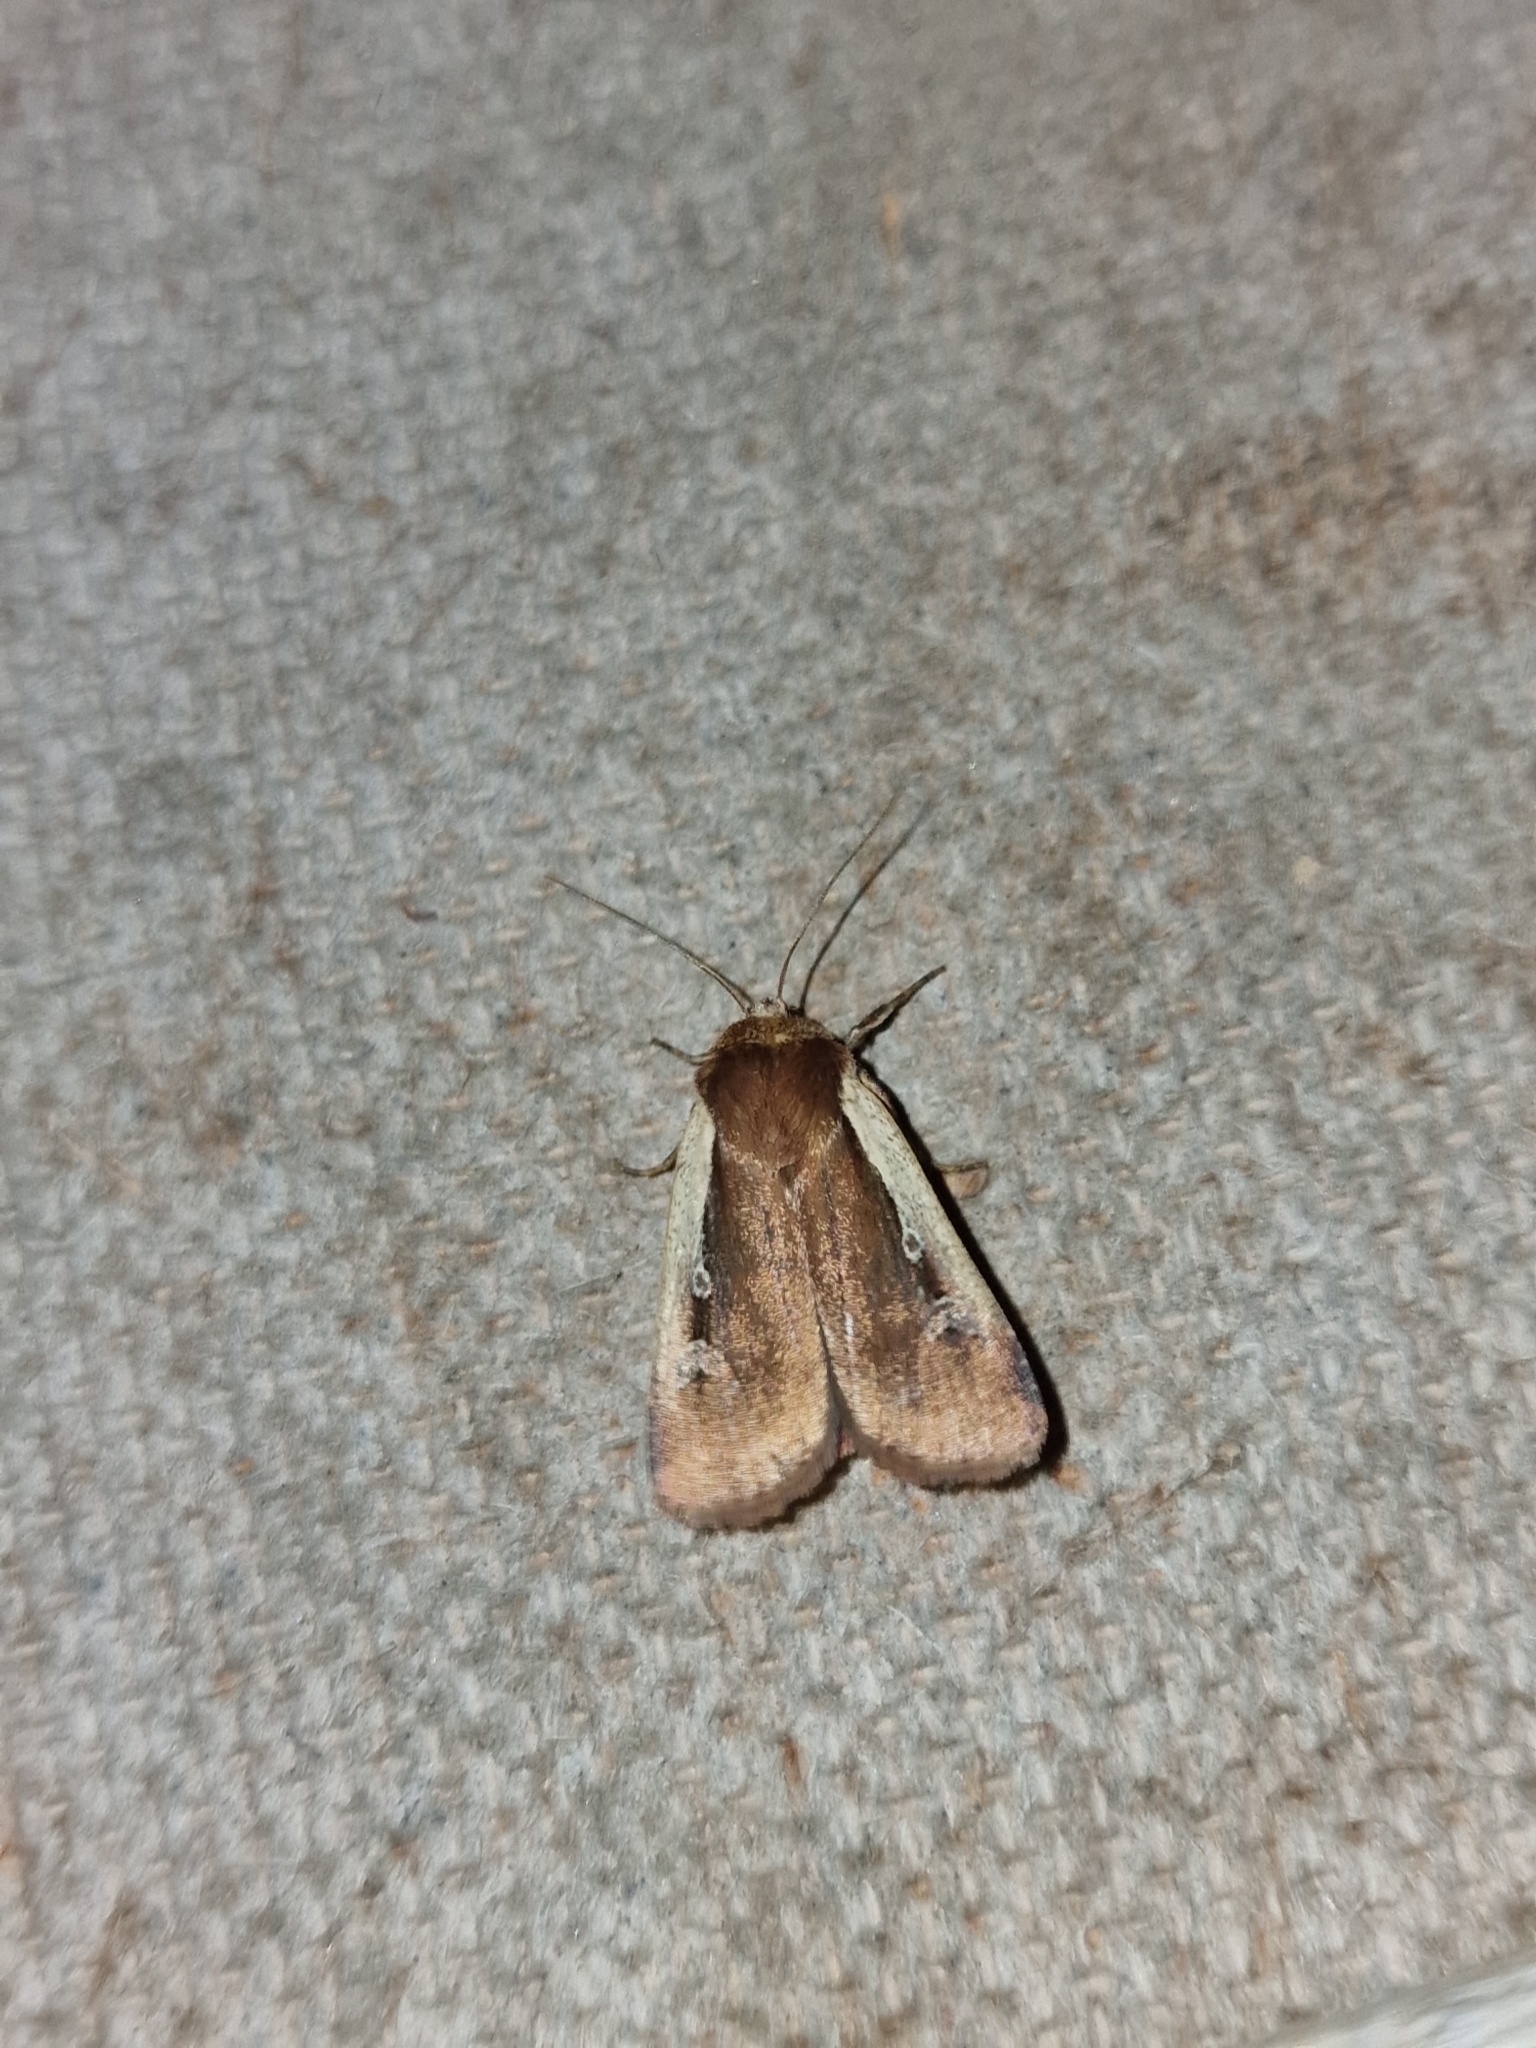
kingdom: Animalia
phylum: Arthropoda
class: Insecta
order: Lepidoptera
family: Noctuidae
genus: Ochropleura
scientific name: Ochropleura plecta
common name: Flame shoulder
